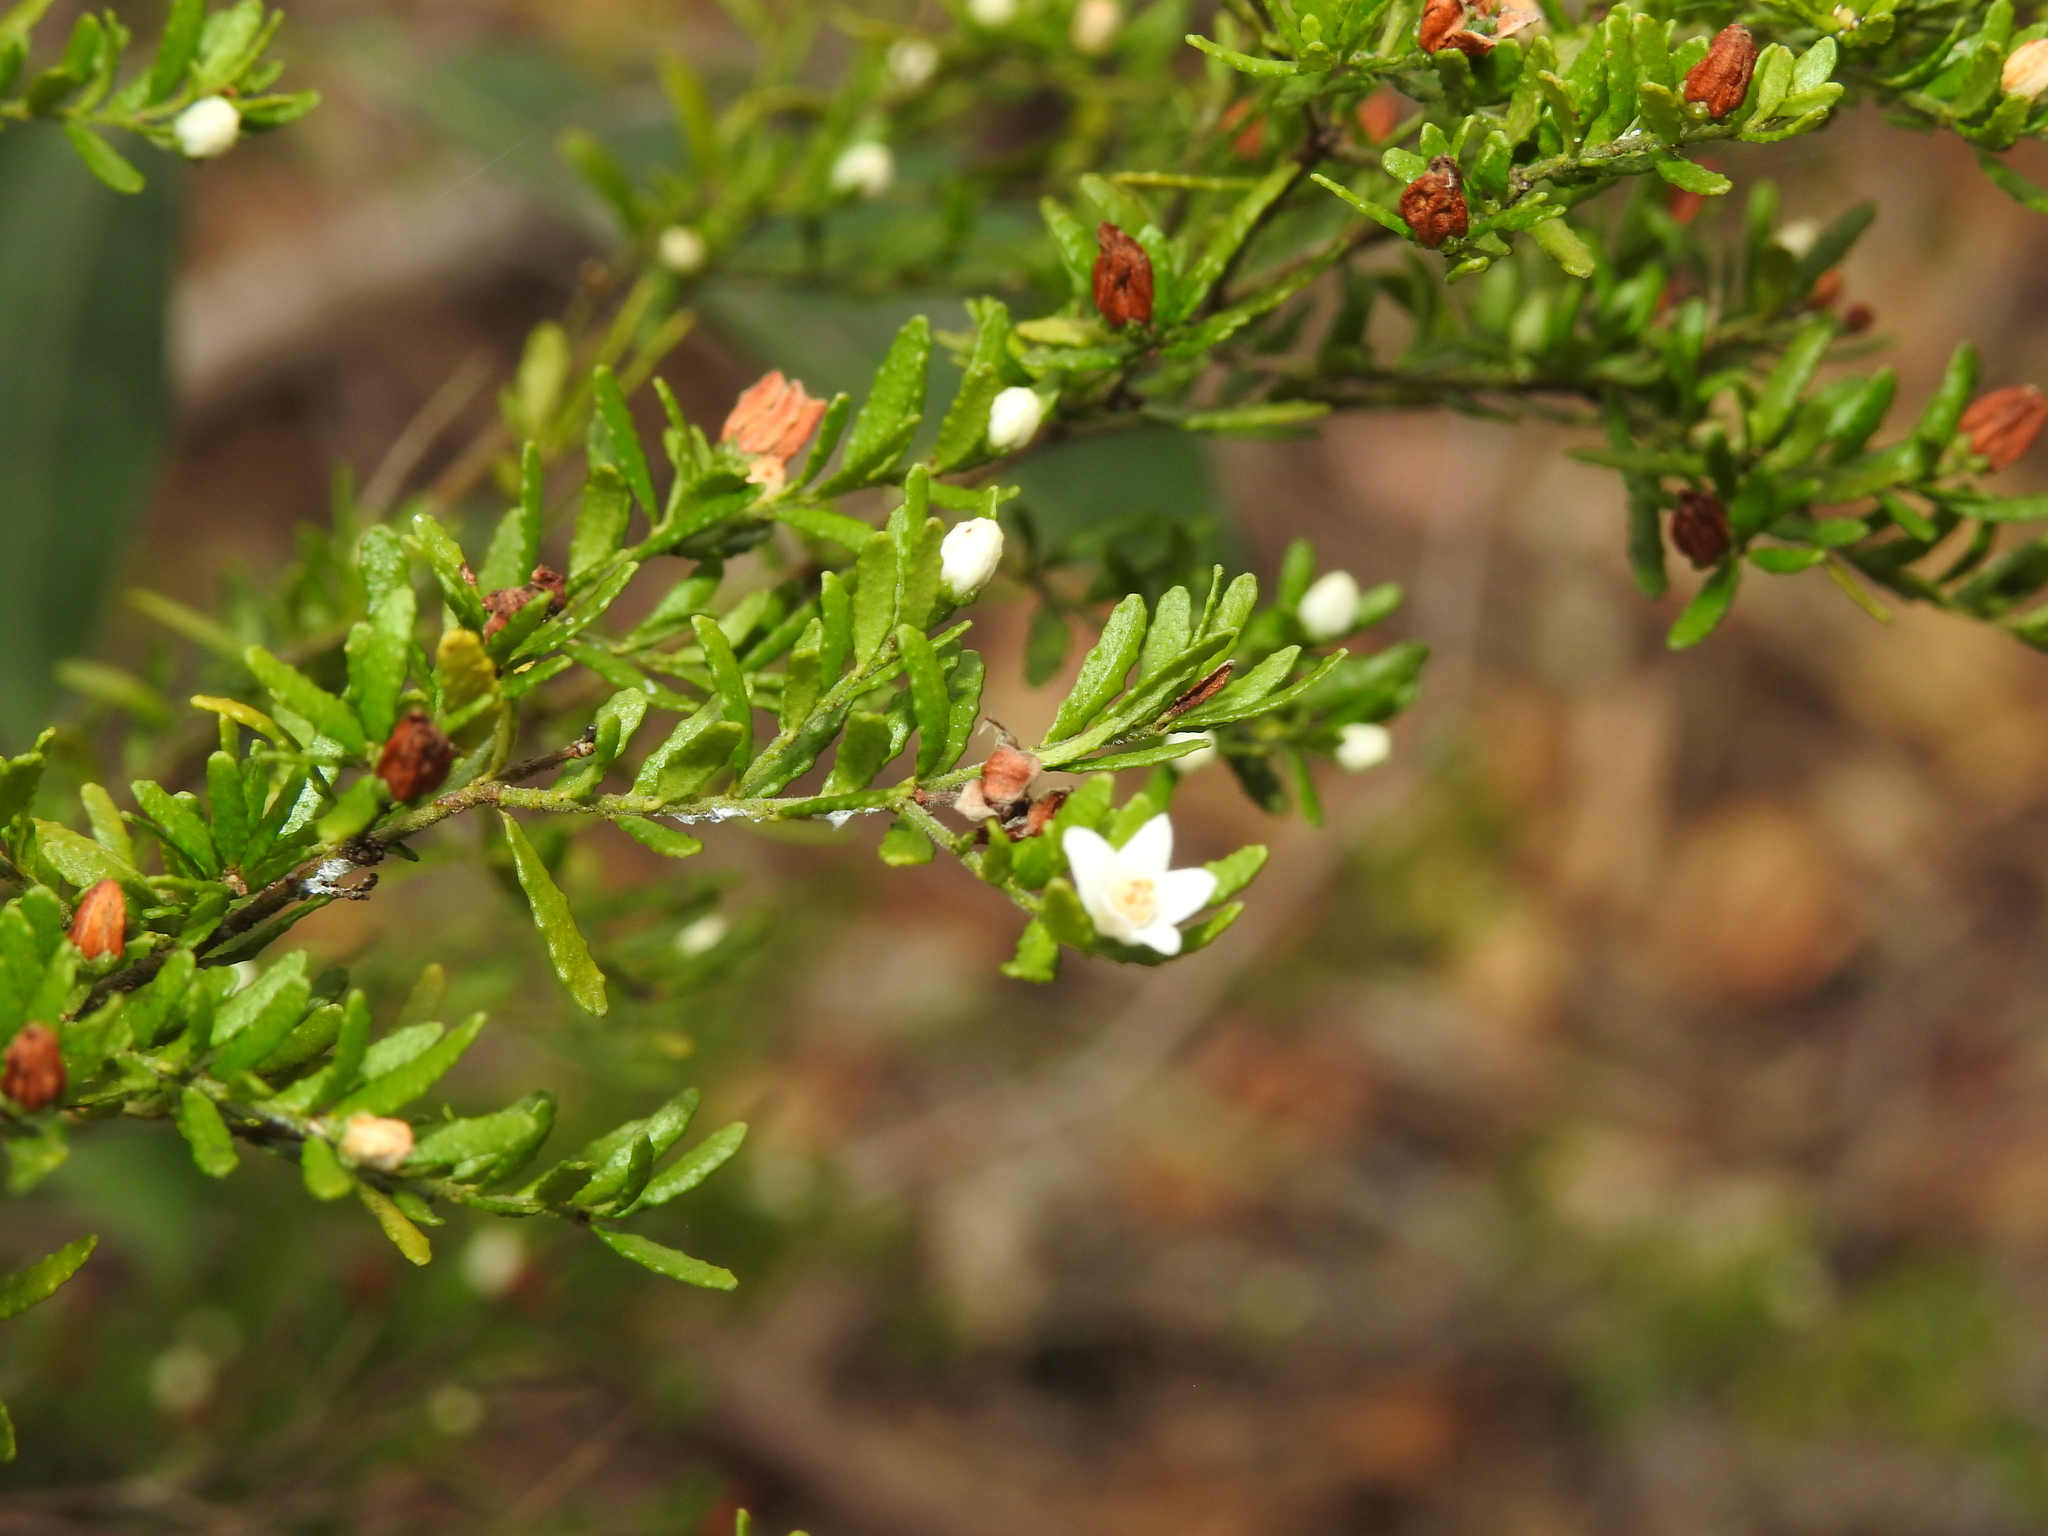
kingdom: Plantae
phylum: Tracheophyta
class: Magnoliopsida
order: Sapindales
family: Rutaceae
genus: Philotheca
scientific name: Philotheca difformis
